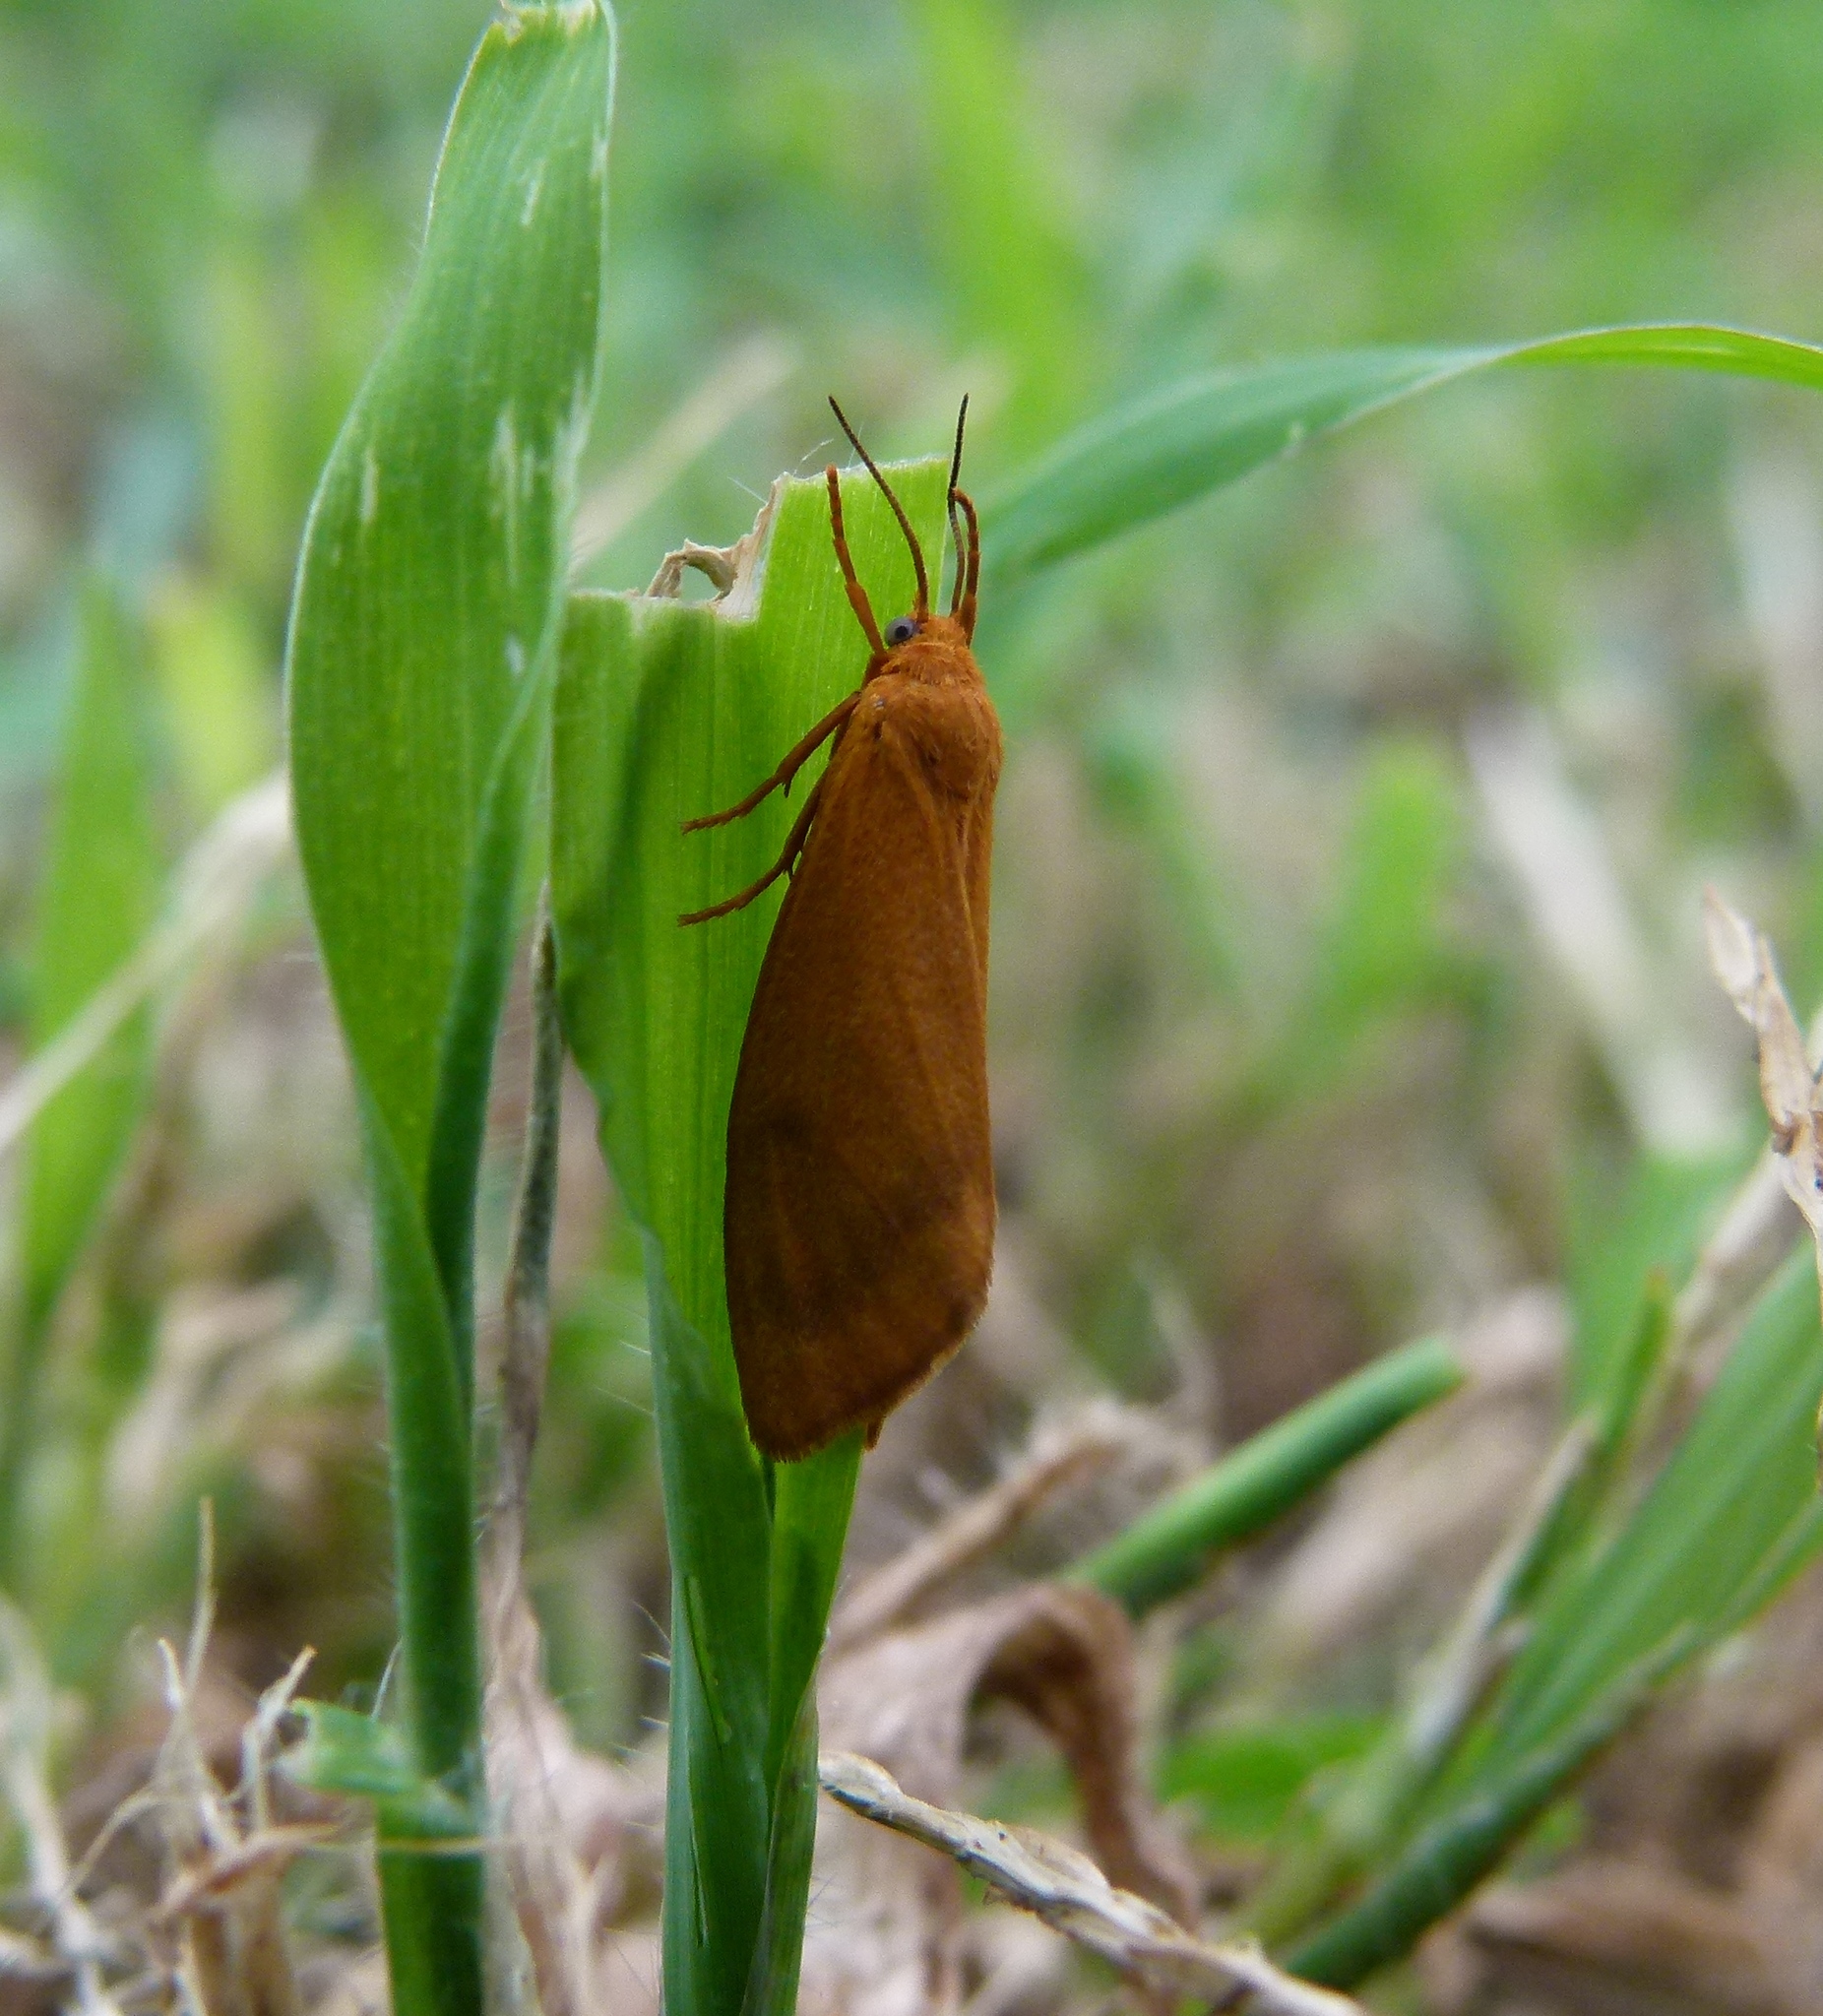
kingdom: Animalia
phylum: Arthropoda
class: Insecta
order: Lepidoptera
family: Erebidae
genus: Virbia
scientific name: Virbia aurantiaca
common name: Orange virbia moth
